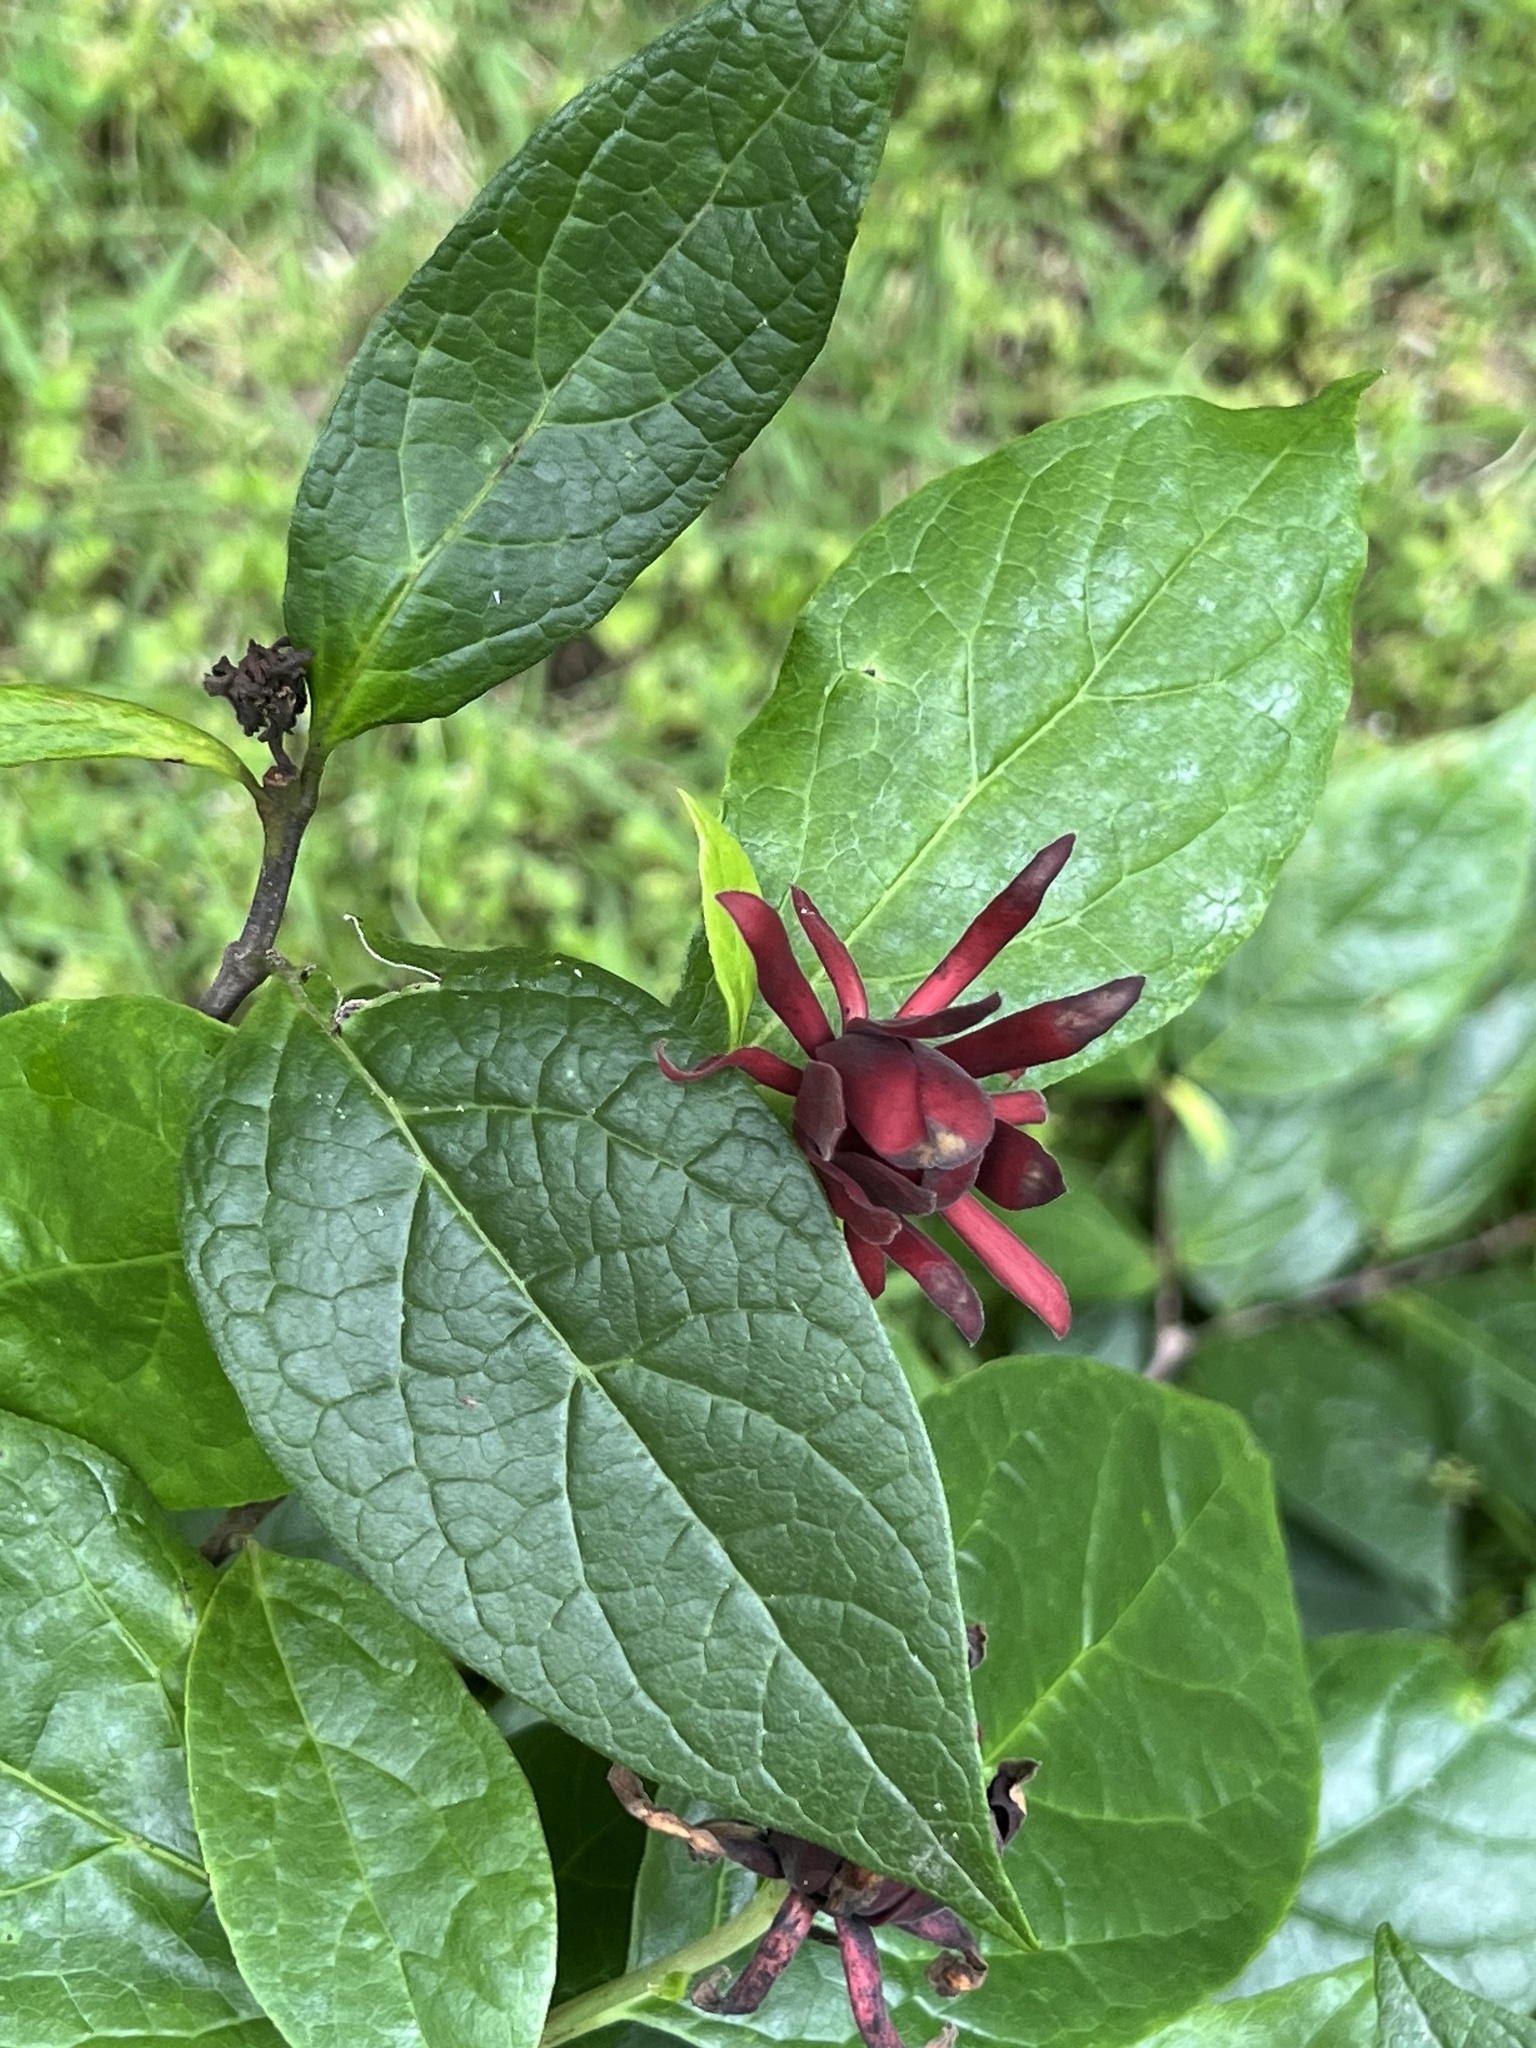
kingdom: Plantae
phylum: Tracheophyta
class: Magnoliopsida
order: Laurales
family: Calycanthaceae
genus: Calycanthus
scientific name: Calycanthus floridus
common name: Carolina-allspice
